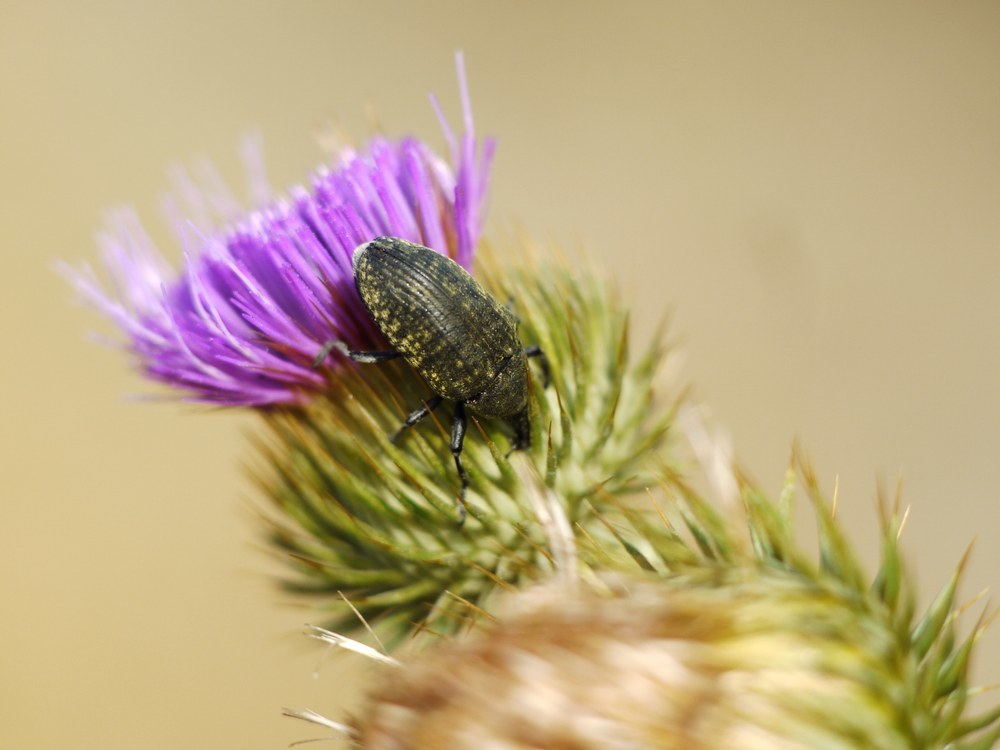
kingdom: Animalia
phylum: Arthropoda
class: Insecta
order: Coleoptera
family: Curculionidae
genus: Larinus
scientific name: Larinus latus
